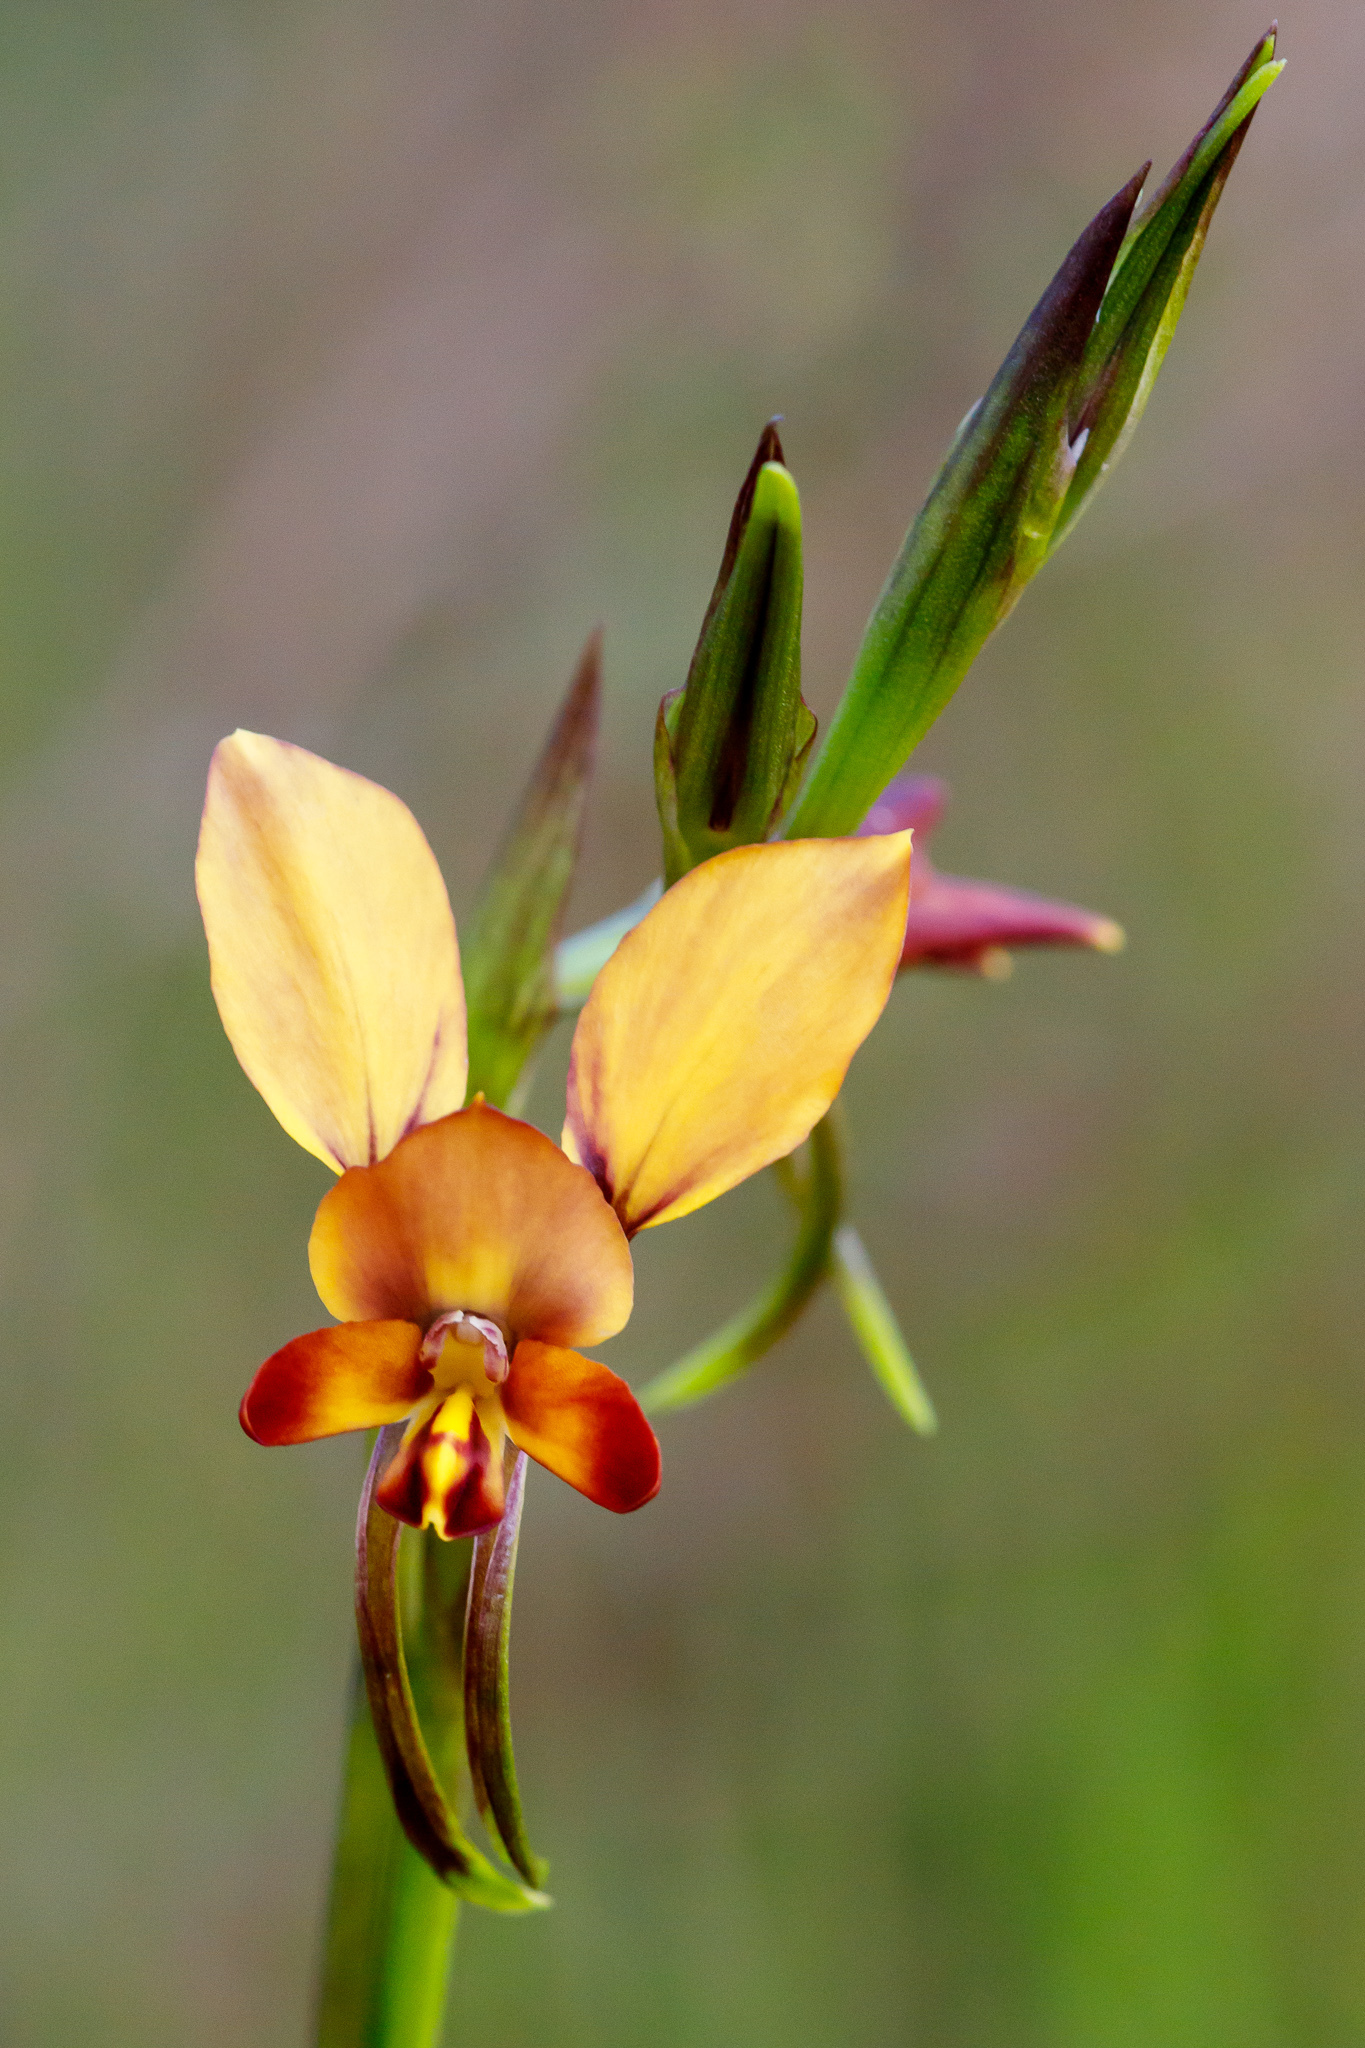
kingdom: Plantae
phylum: Tracheophyta
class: Liliopsida
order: Asparagales
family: Orchidaceae
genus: Diuris
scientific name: Diuris brumalis
